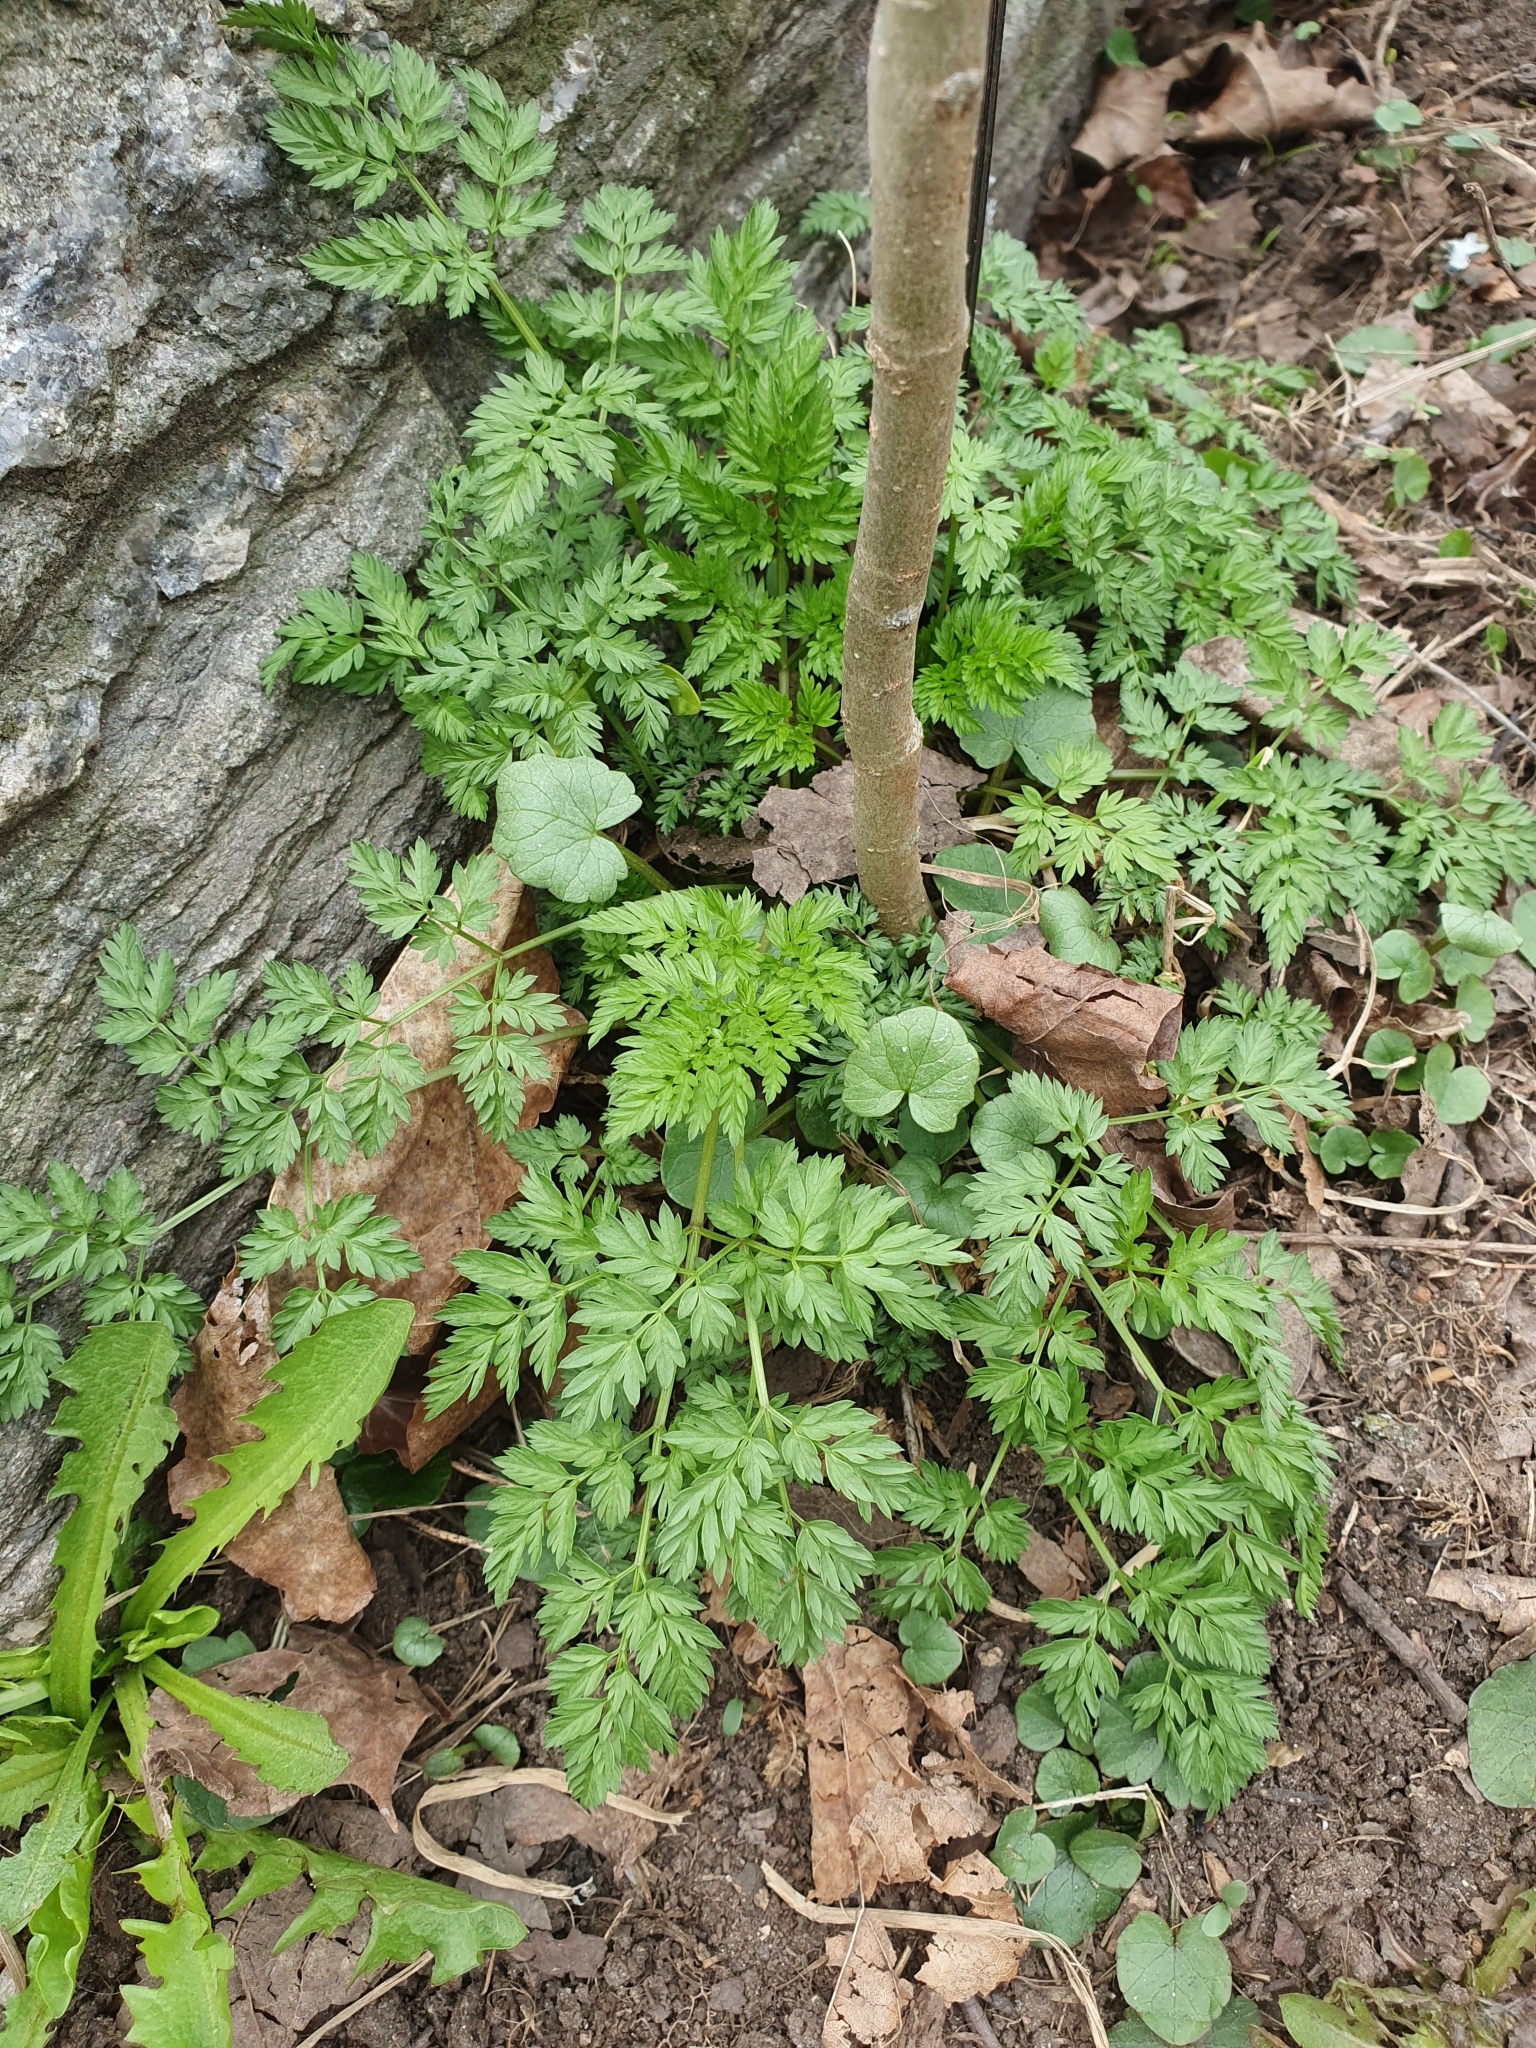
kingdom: Plantae
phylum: Tracheophyta
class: Magnoliopsida
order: Apiales
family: Apiaceae
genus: Anthriscus
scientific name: Anthriscus sylvestris
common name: Cow parsley
